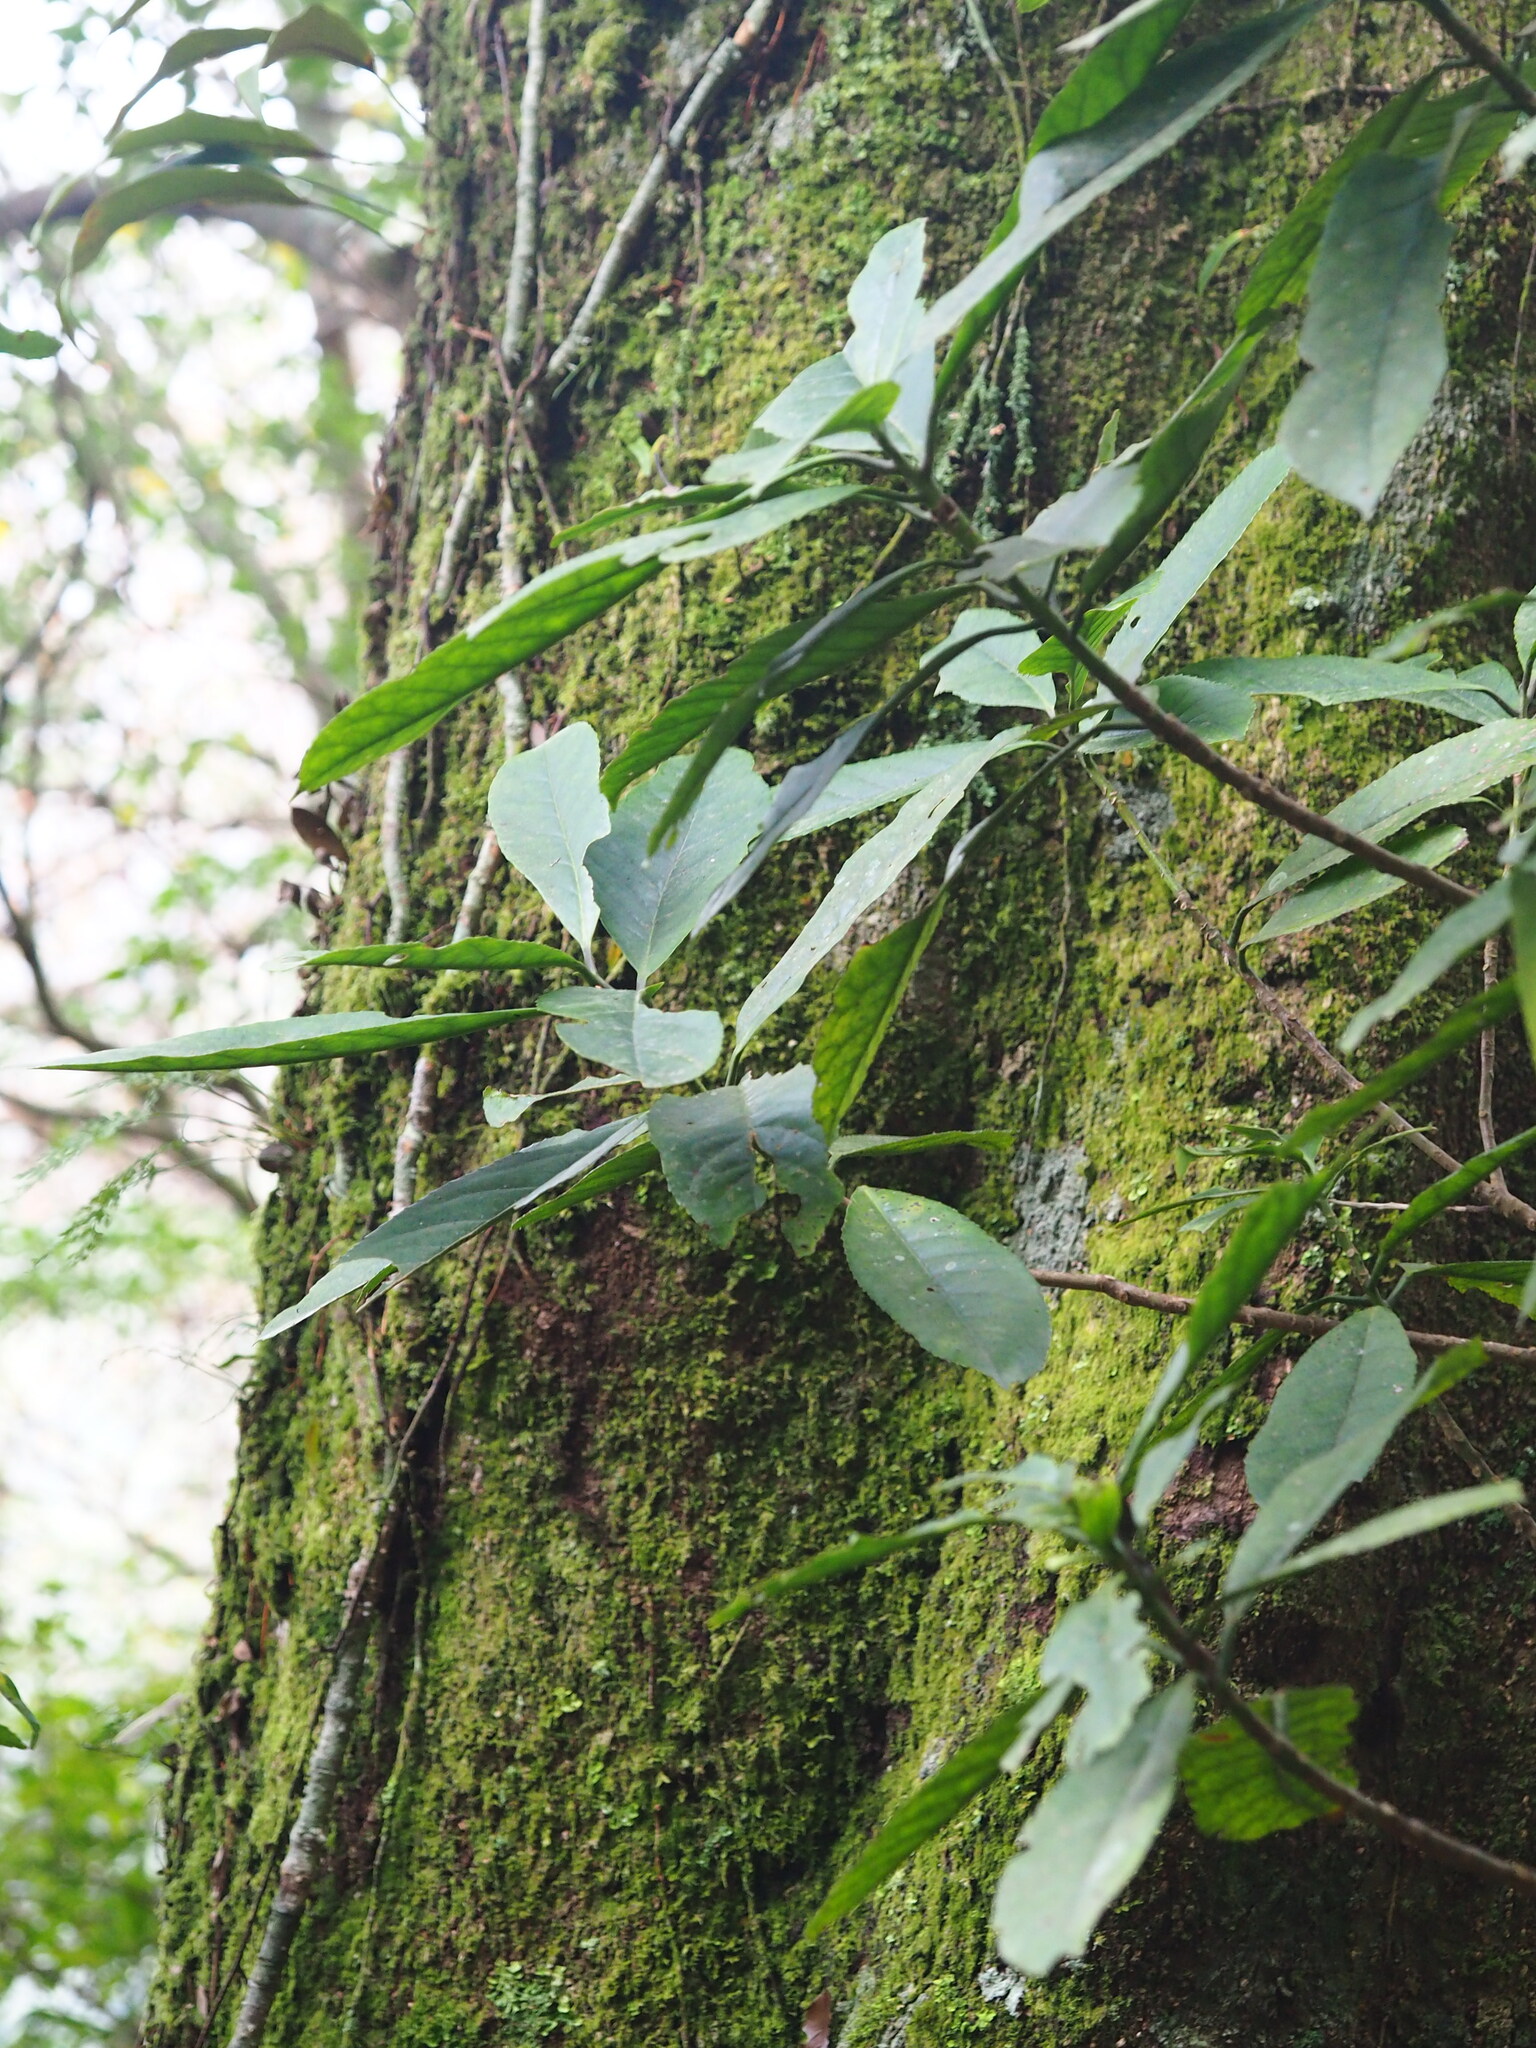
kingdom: Plantae
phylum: Tracheophyta
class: Magnoliopsida
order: Ericales
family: Symplocaceae
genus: Symplocos
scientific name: Symplocos acuminata
